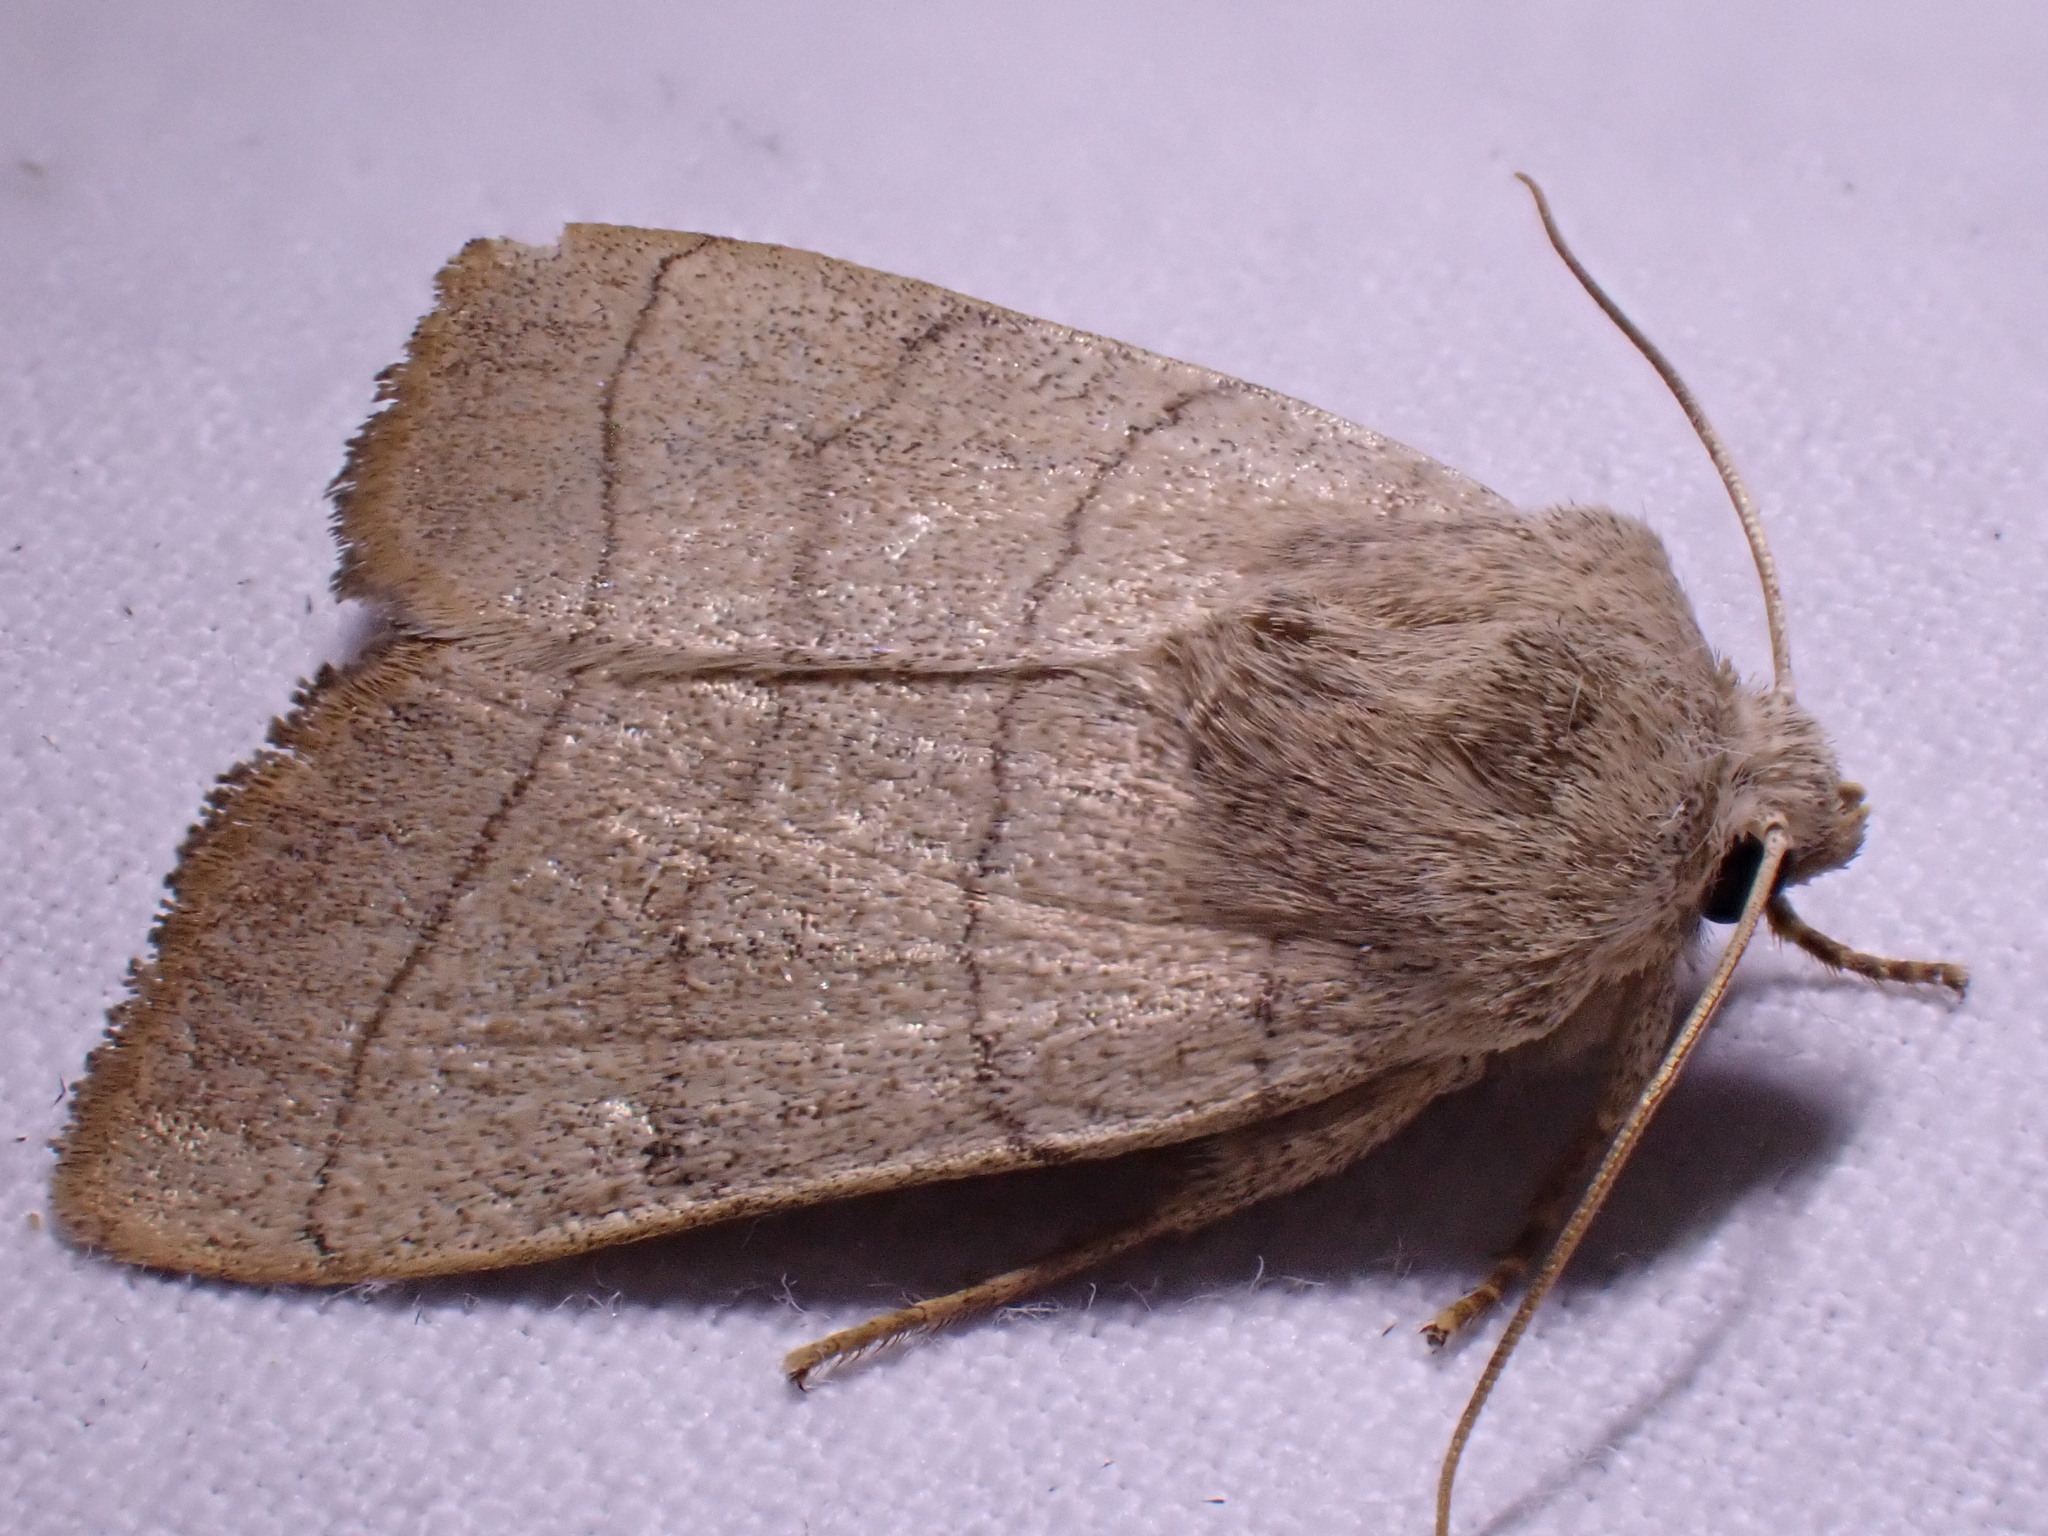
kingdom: Animalia
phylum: Arthropoda
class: Insecta
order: Lepidoptera
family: Noctuidae
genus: Charanyca
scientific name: Charanyca trigrammica
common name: Treble lines
